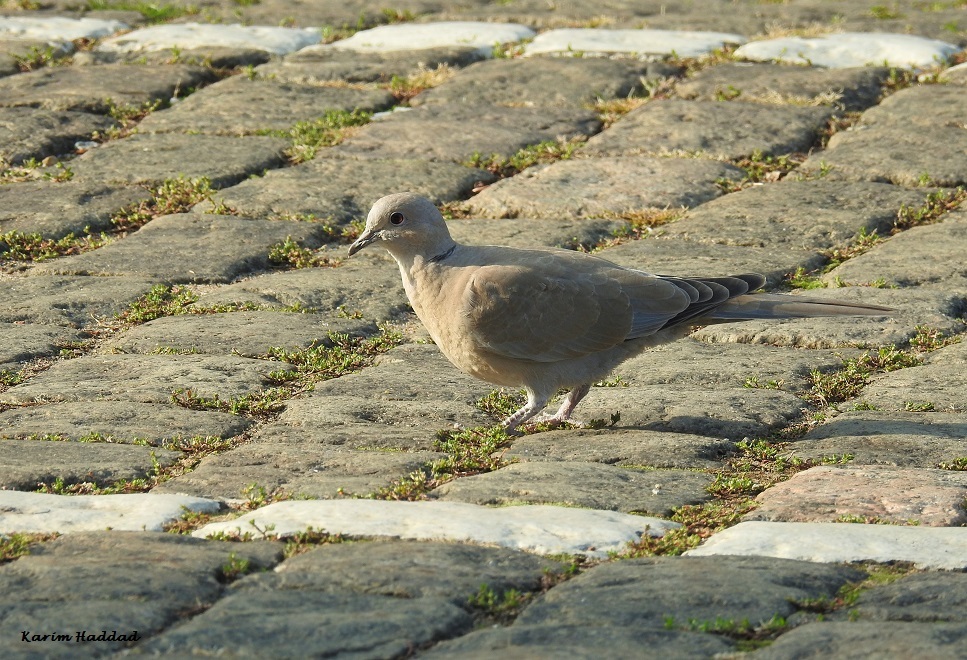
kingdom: Animalia
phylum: Chordata
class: Aves
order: Columbiformes
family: Columbidae
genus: Streptopelia
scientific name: Streptopelia decaocto
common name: Eurasian collared dove
